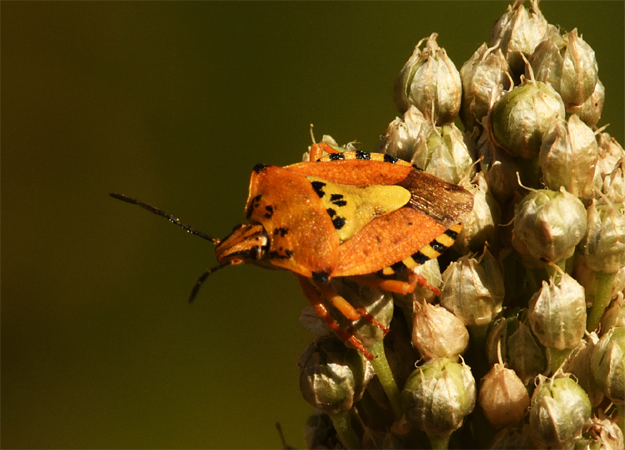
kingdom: Animalia
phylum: Arthropoda
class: Insecta
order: Hemiptera
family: Pentatomidae
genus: Carpocoris
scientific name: Carpocoris purpureipennis
